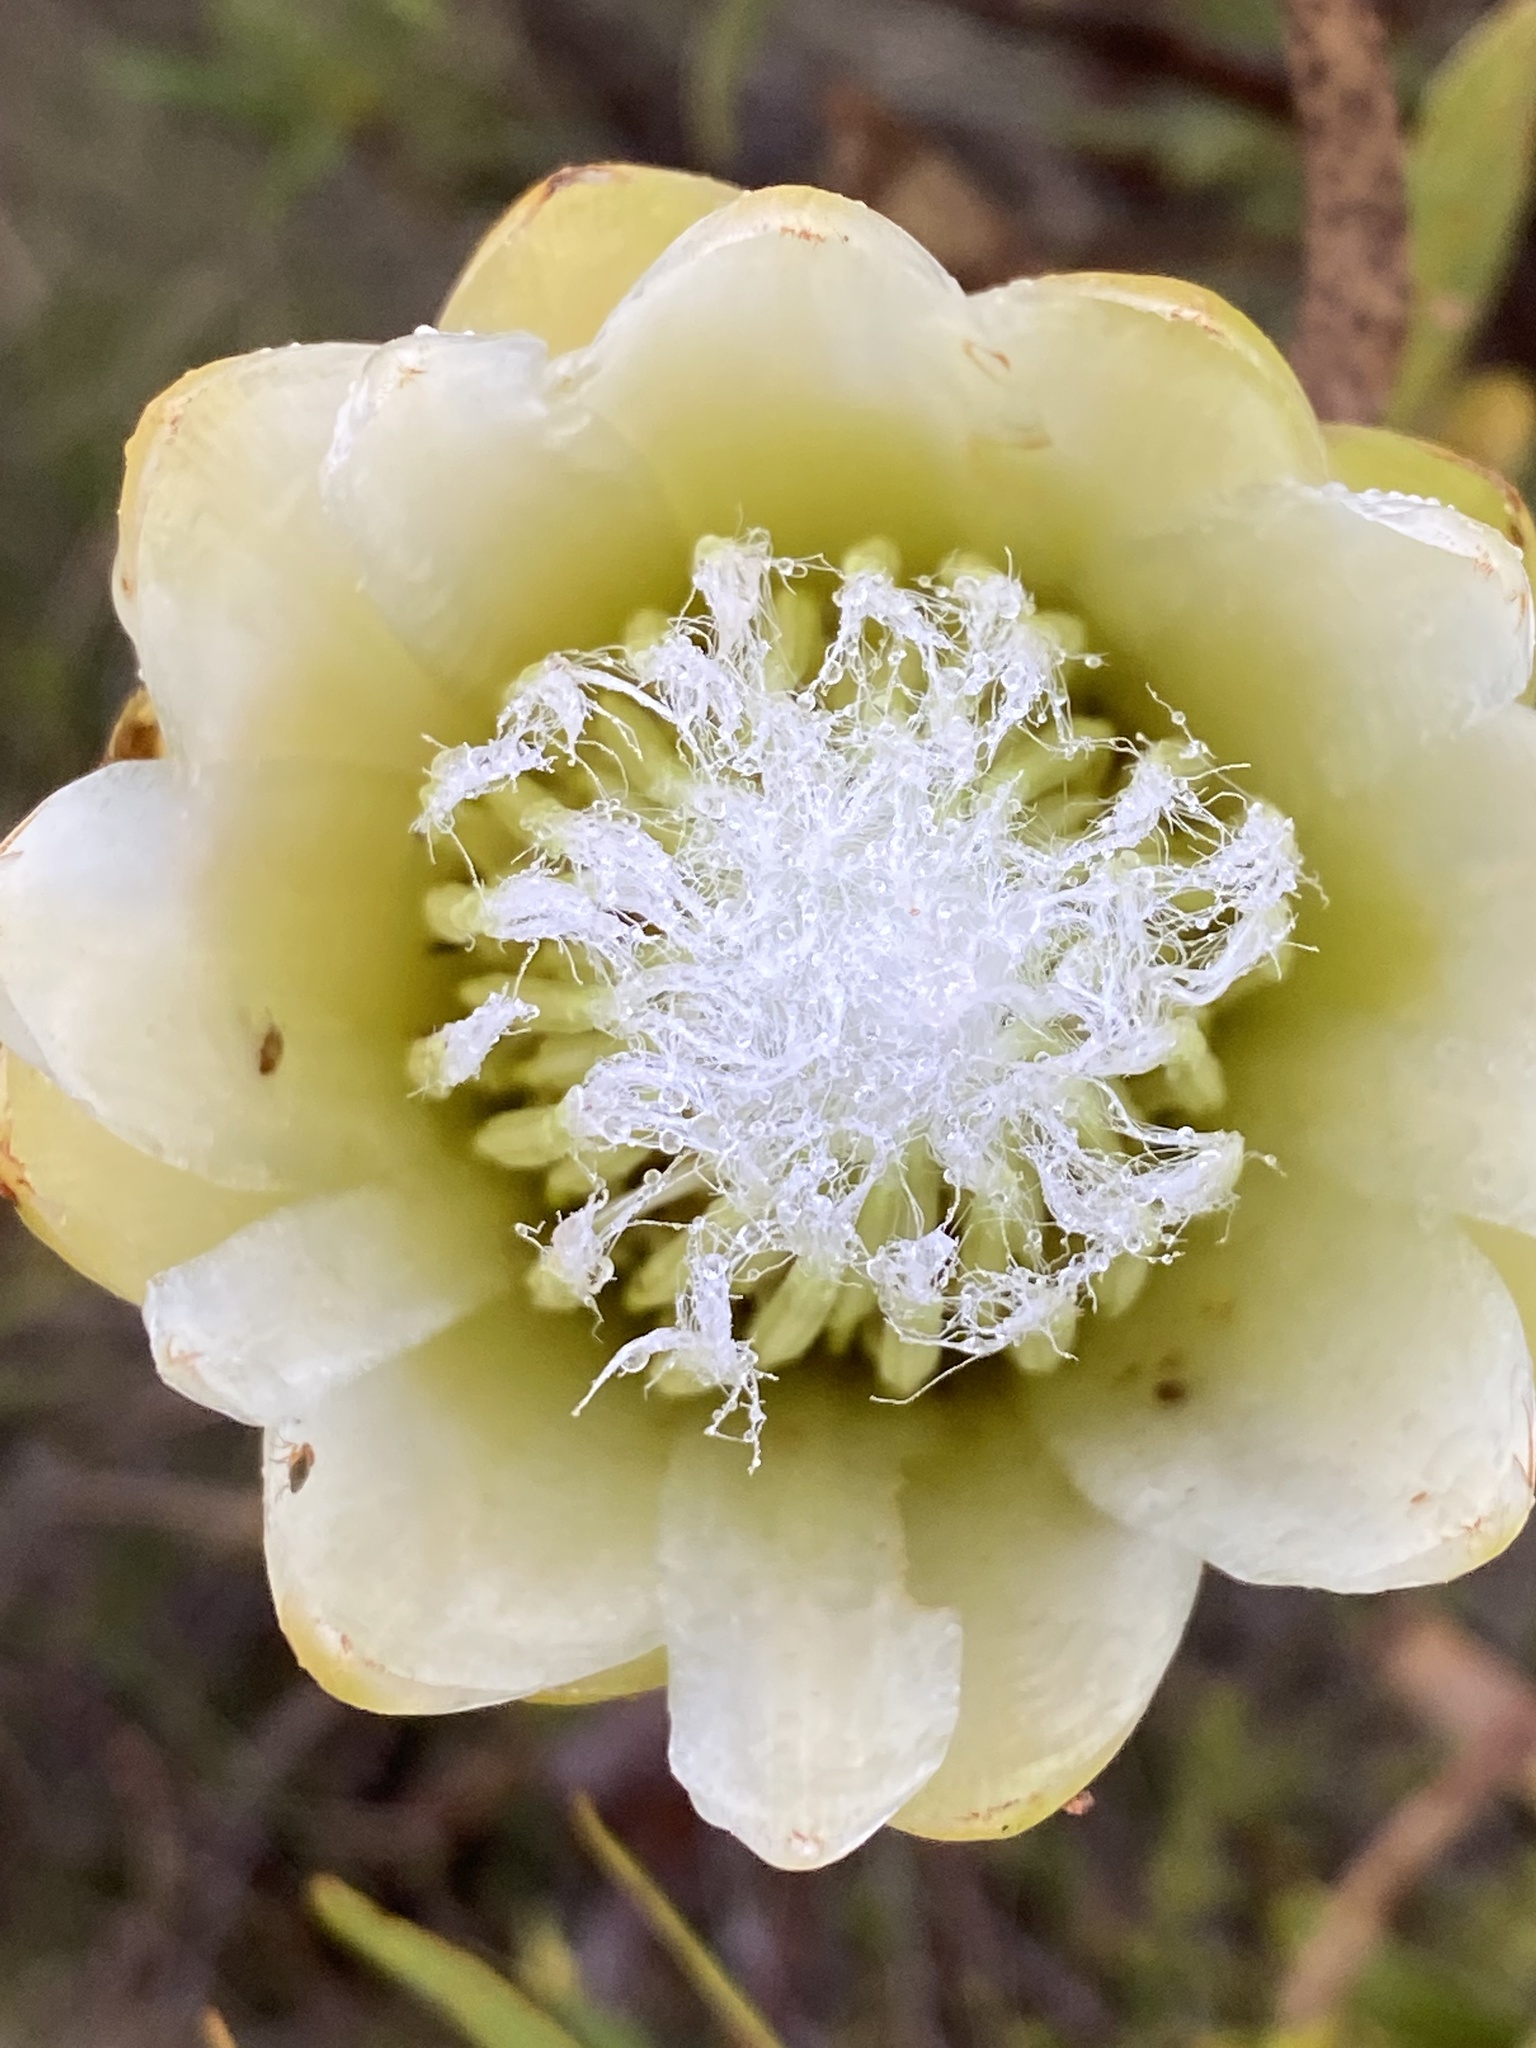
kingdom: Plantae
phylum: Tracheophyta
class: Magnoliopsida
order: Proteales
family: Proteaceae
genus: Protea
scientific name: Protea repens
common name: Sugarbush
